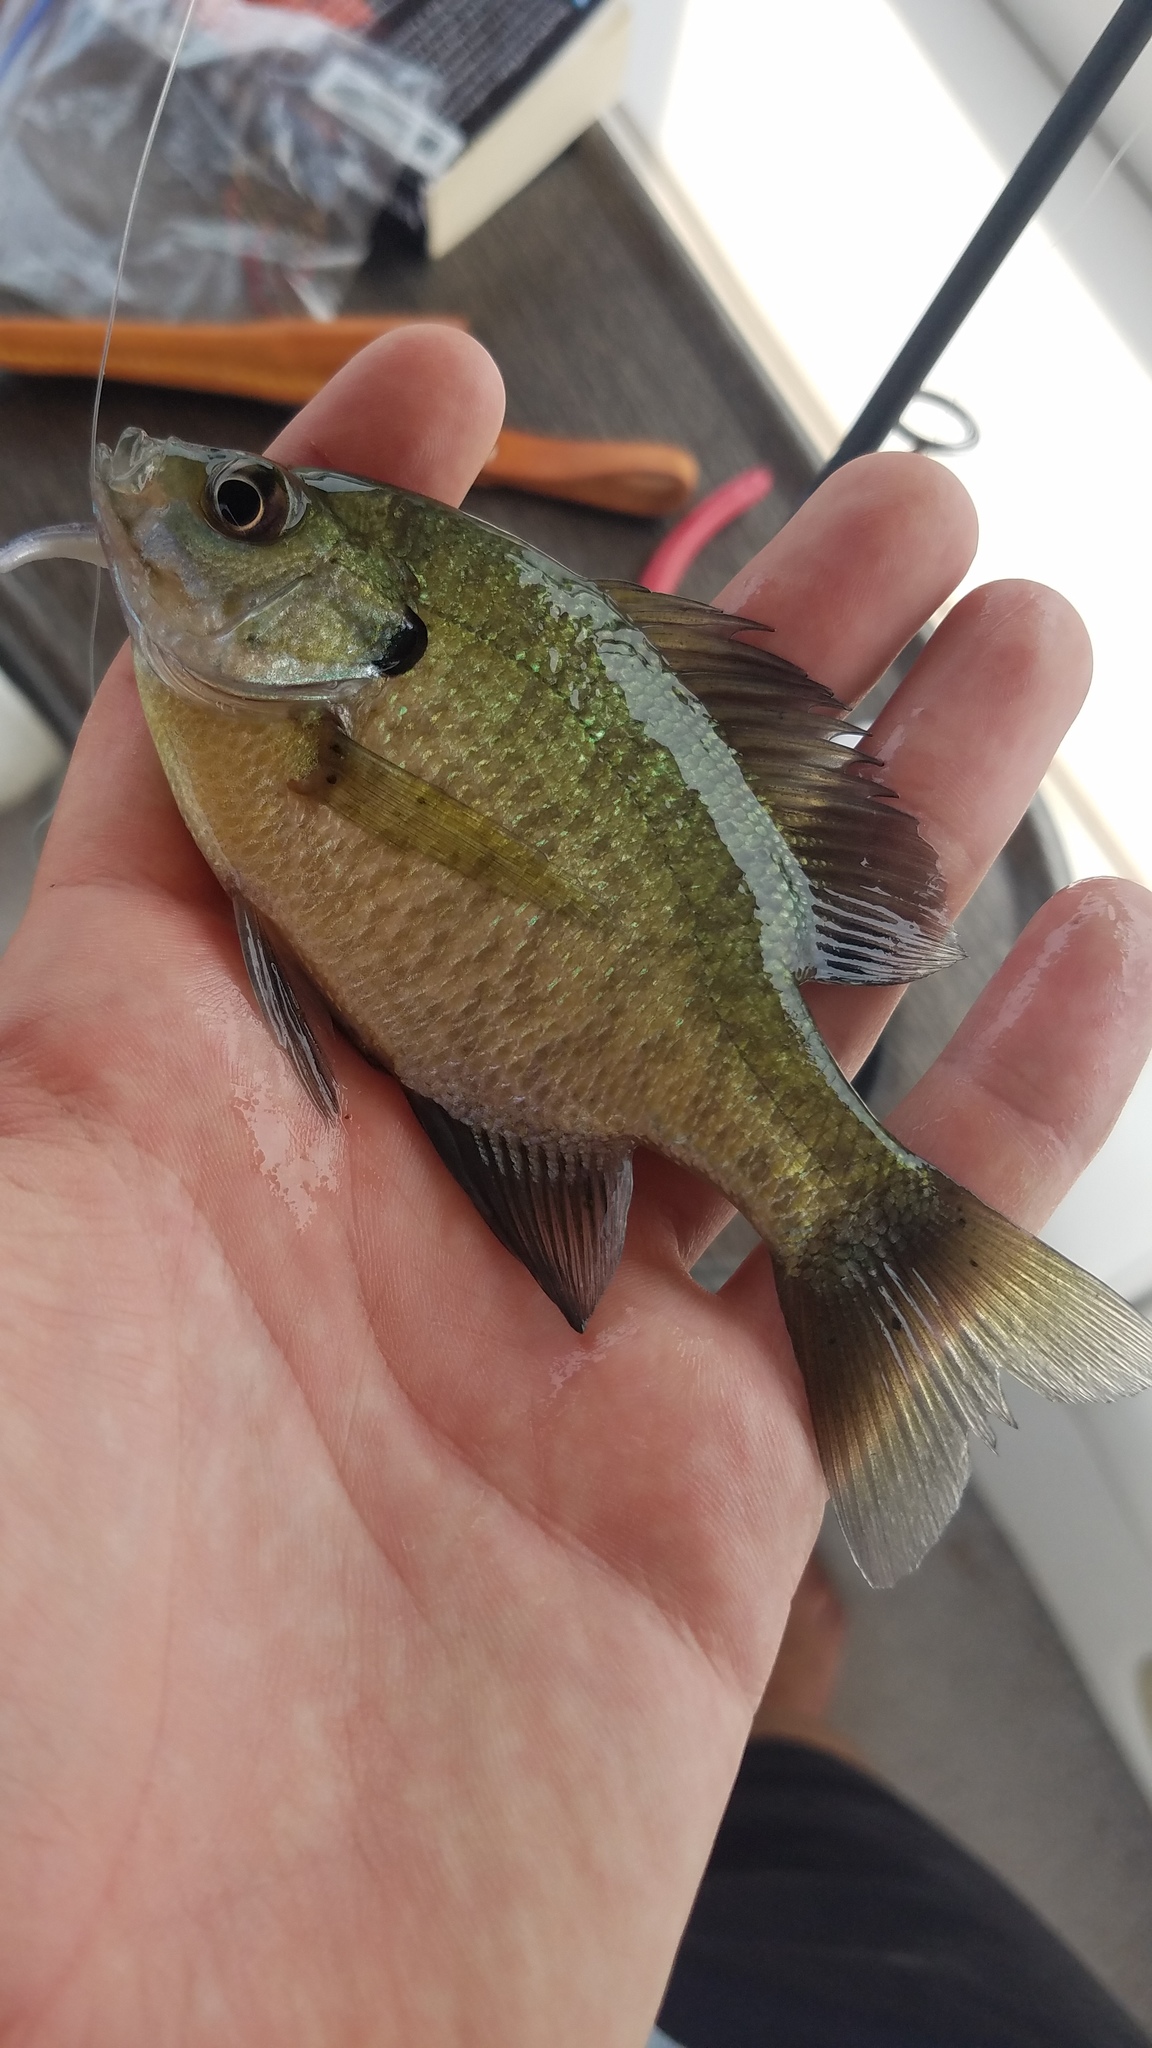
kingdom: Animalia
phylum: Chordata
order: Perciformes
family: Centrarchidae
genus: Lepomis
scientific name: Lepomis macrochirus
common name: Bluegill
